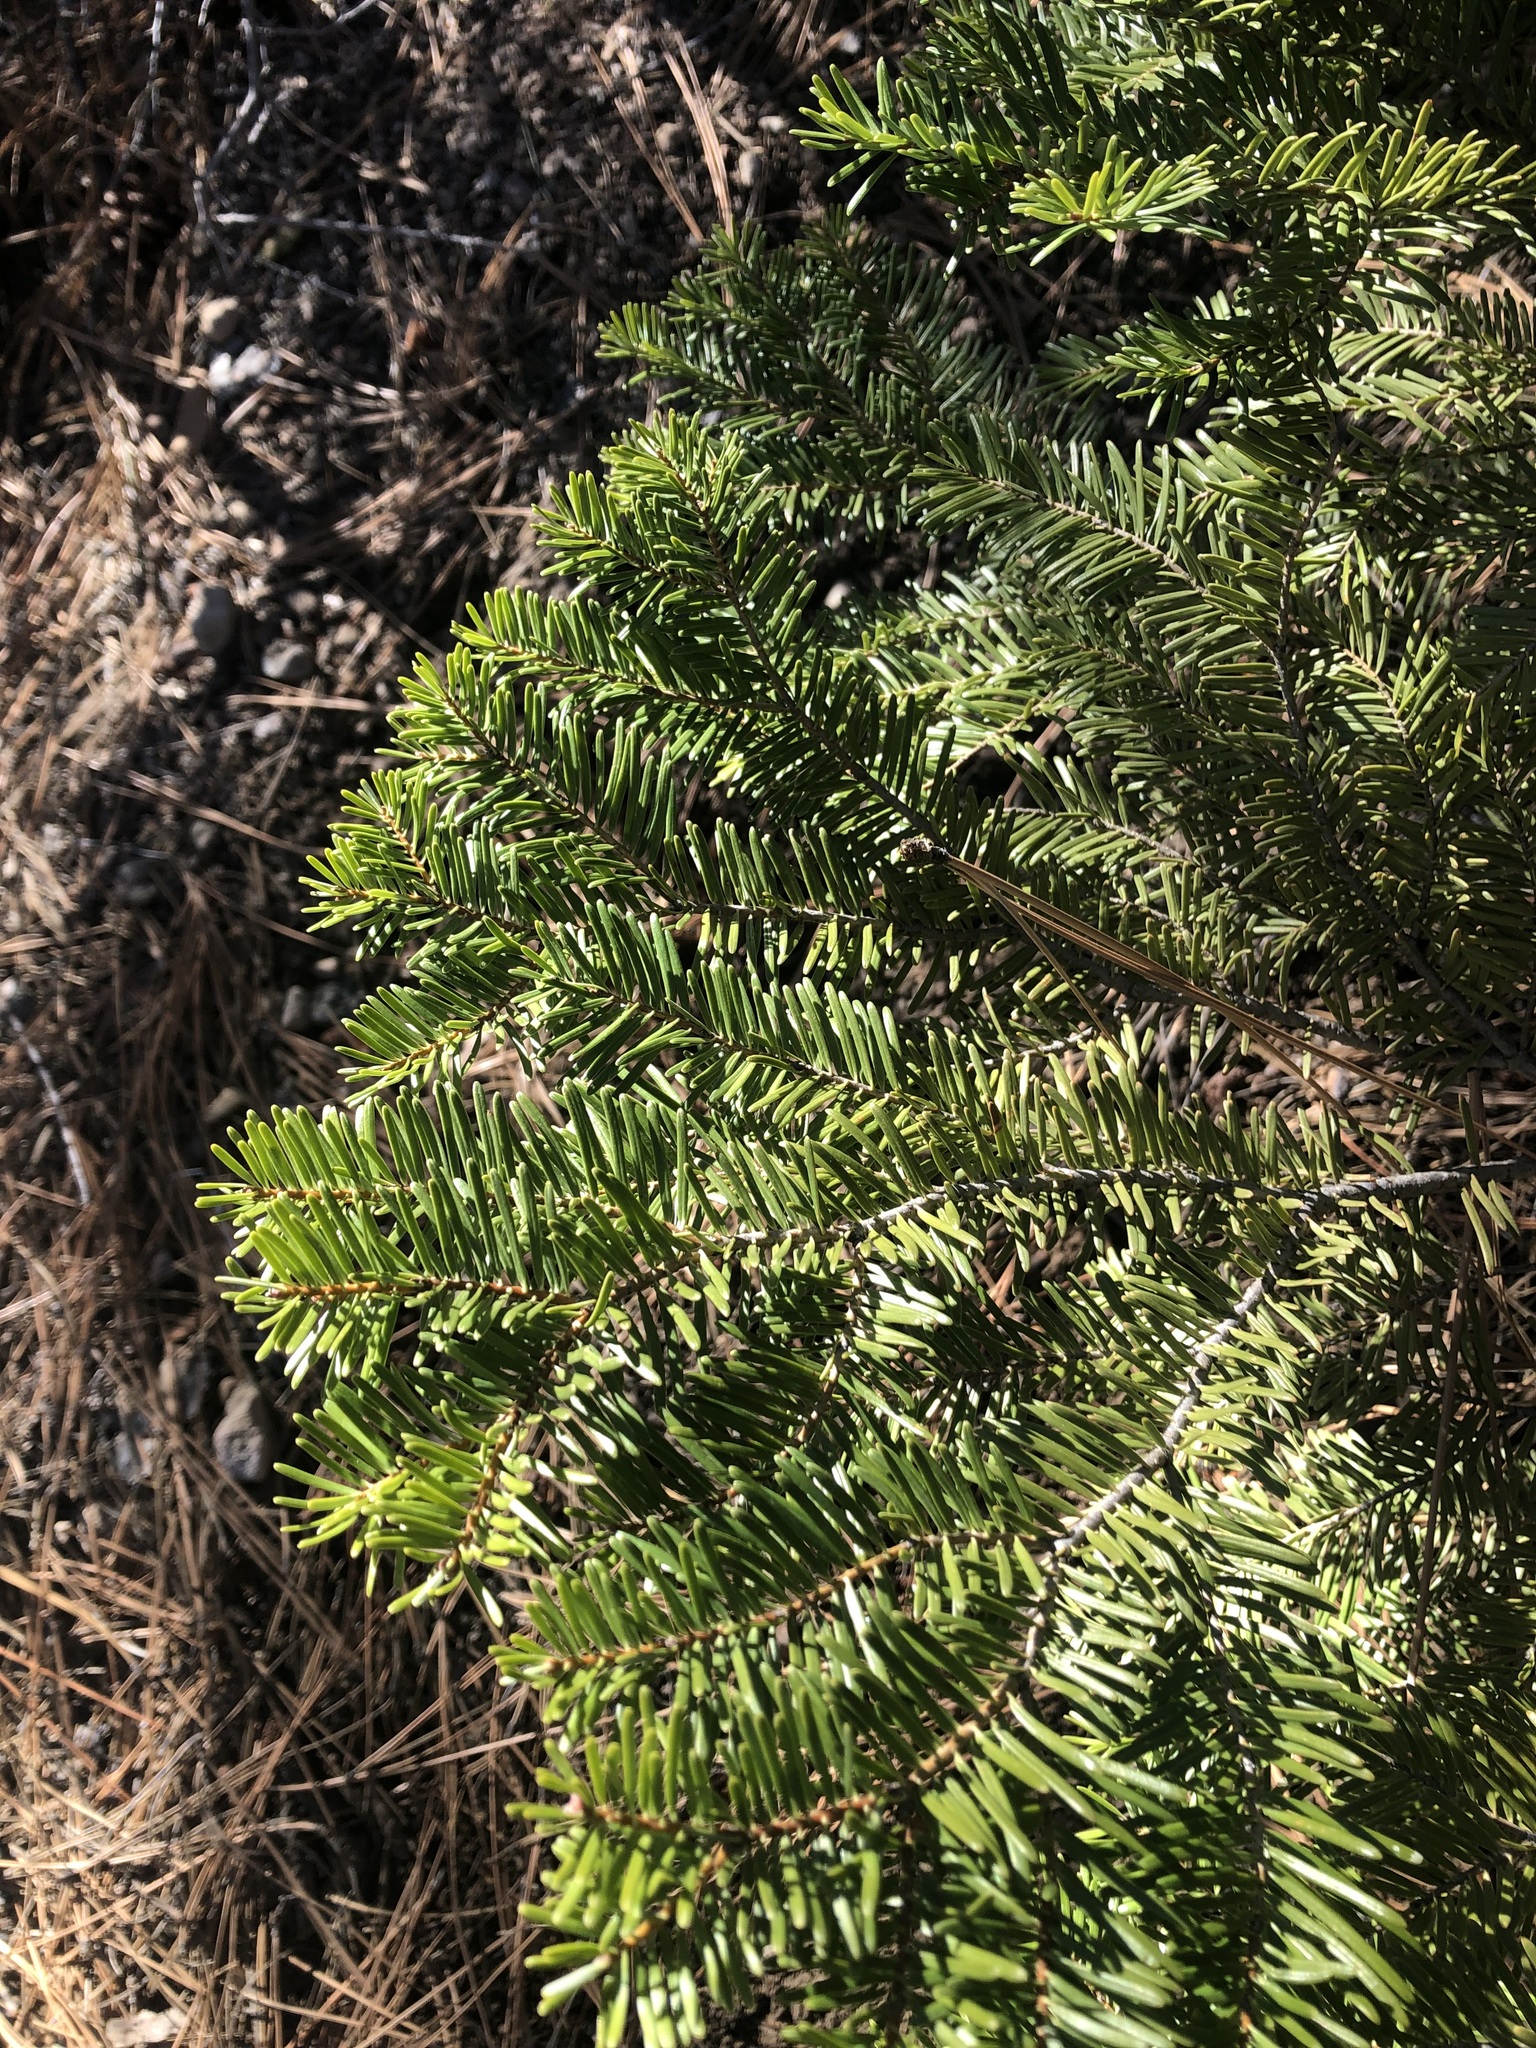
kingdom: Plantae
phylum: Tracheophyta
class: Pinopsida
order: Pinales
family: Pinaceae
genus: Abies
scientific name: Abies grandis
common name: Giant fir
